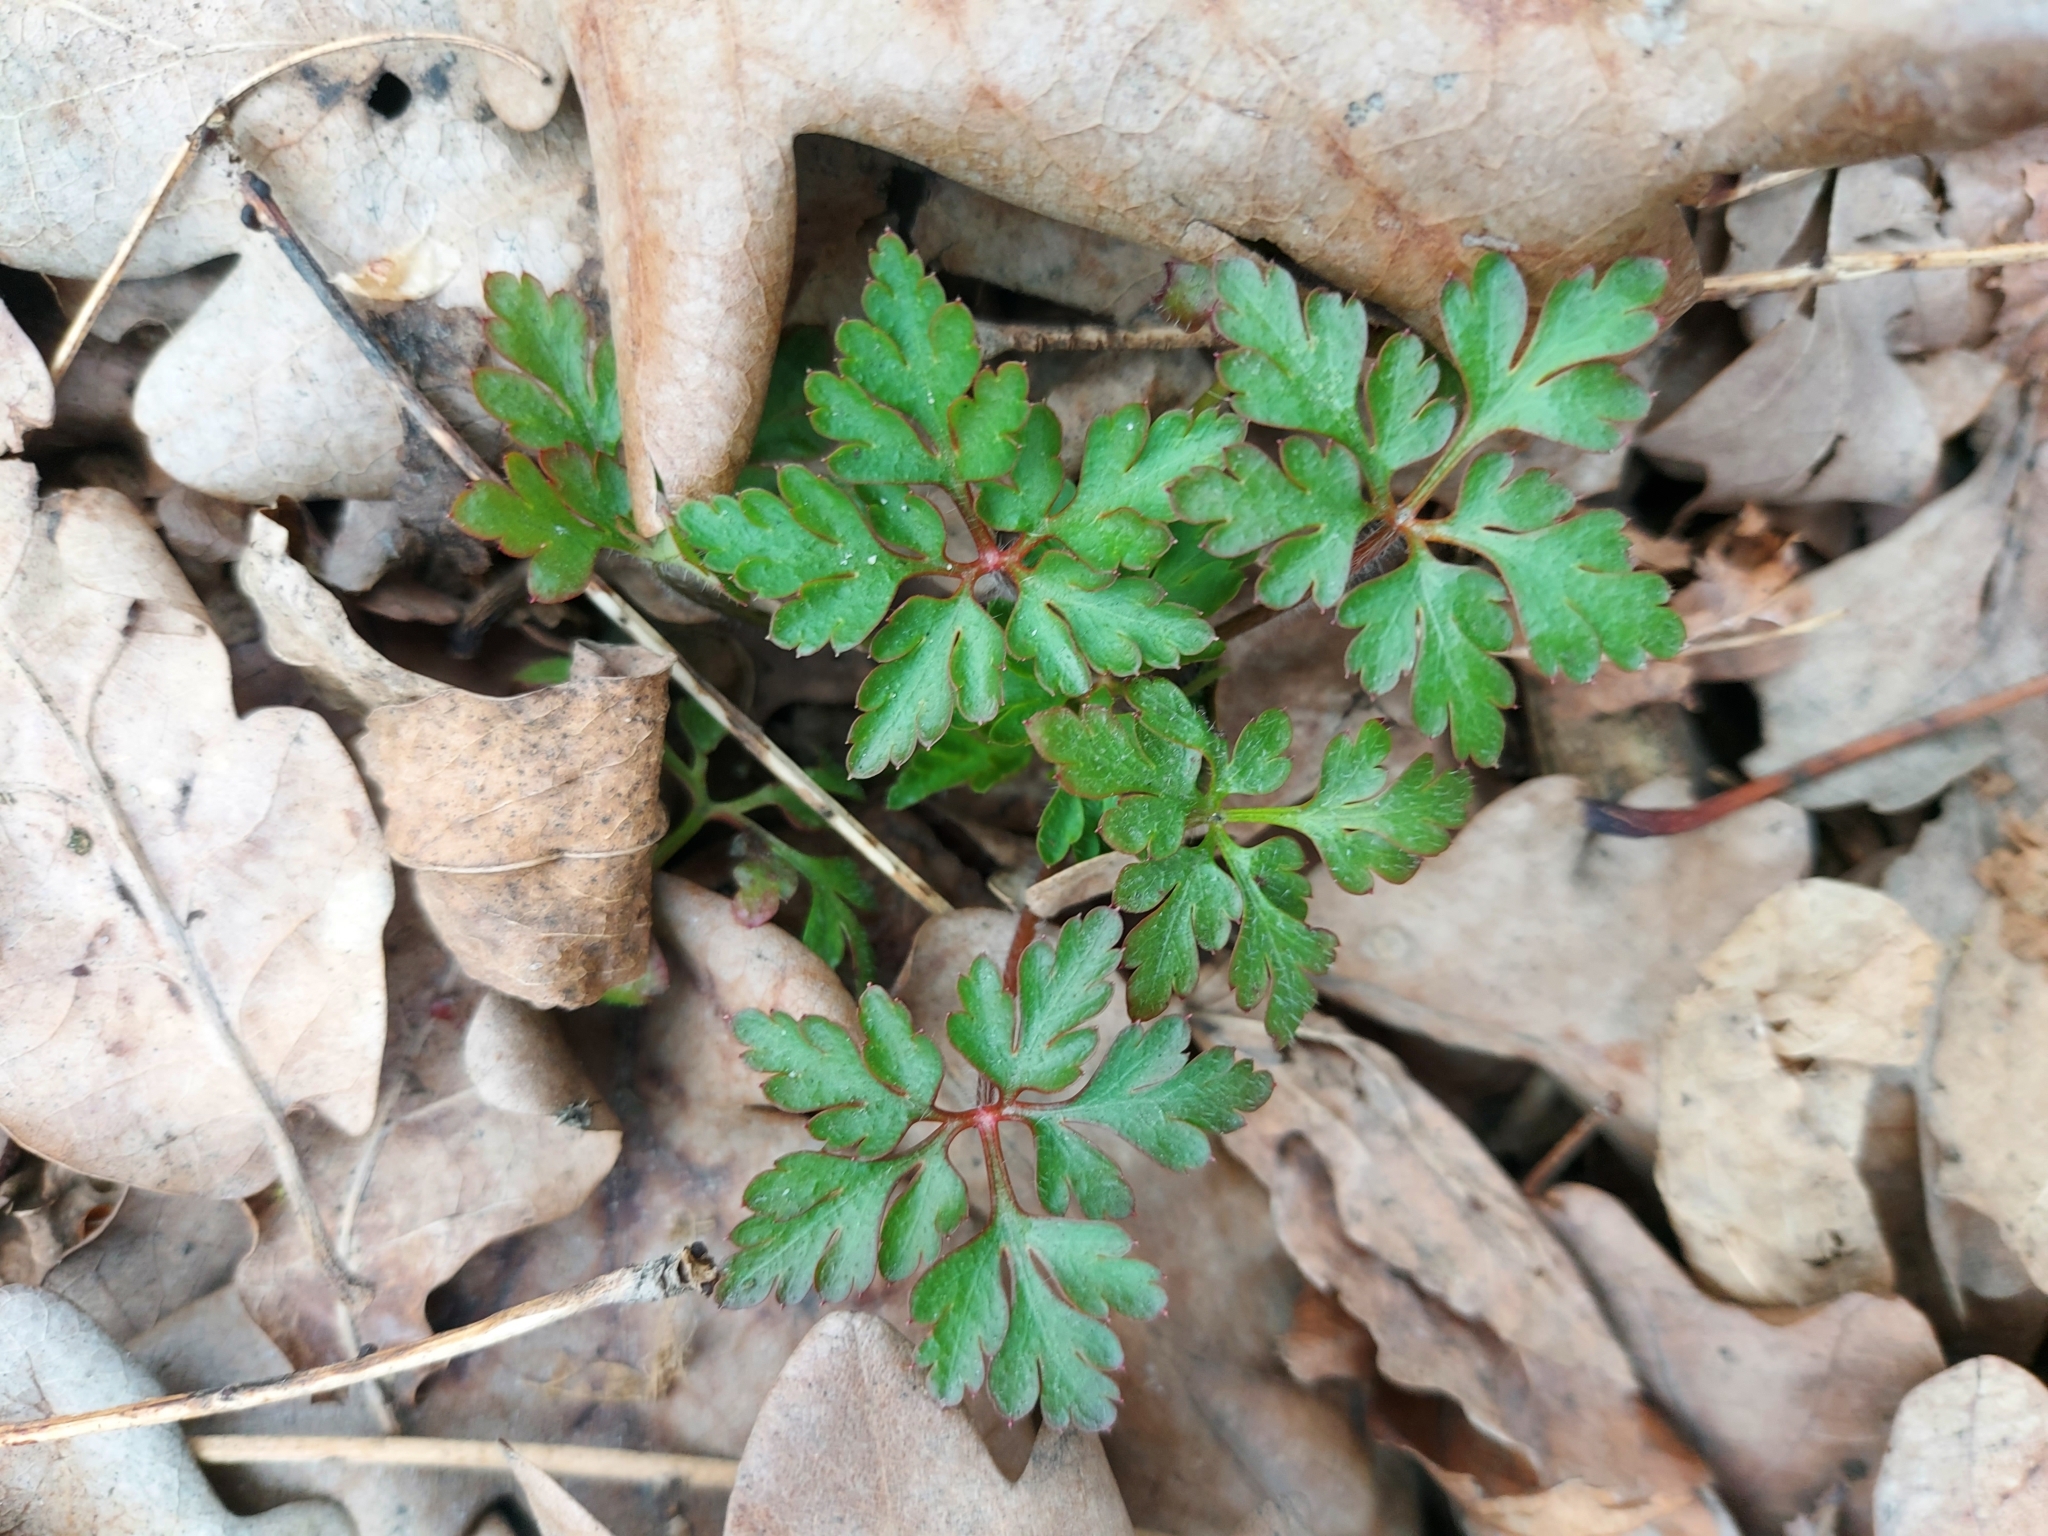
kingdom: Plantae
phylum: Tracheophyta
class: Magnoliopsida
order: Geraniales
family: Geraniaceae
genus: Geranium
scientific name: Geranium robertianum
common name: Herb-robert
